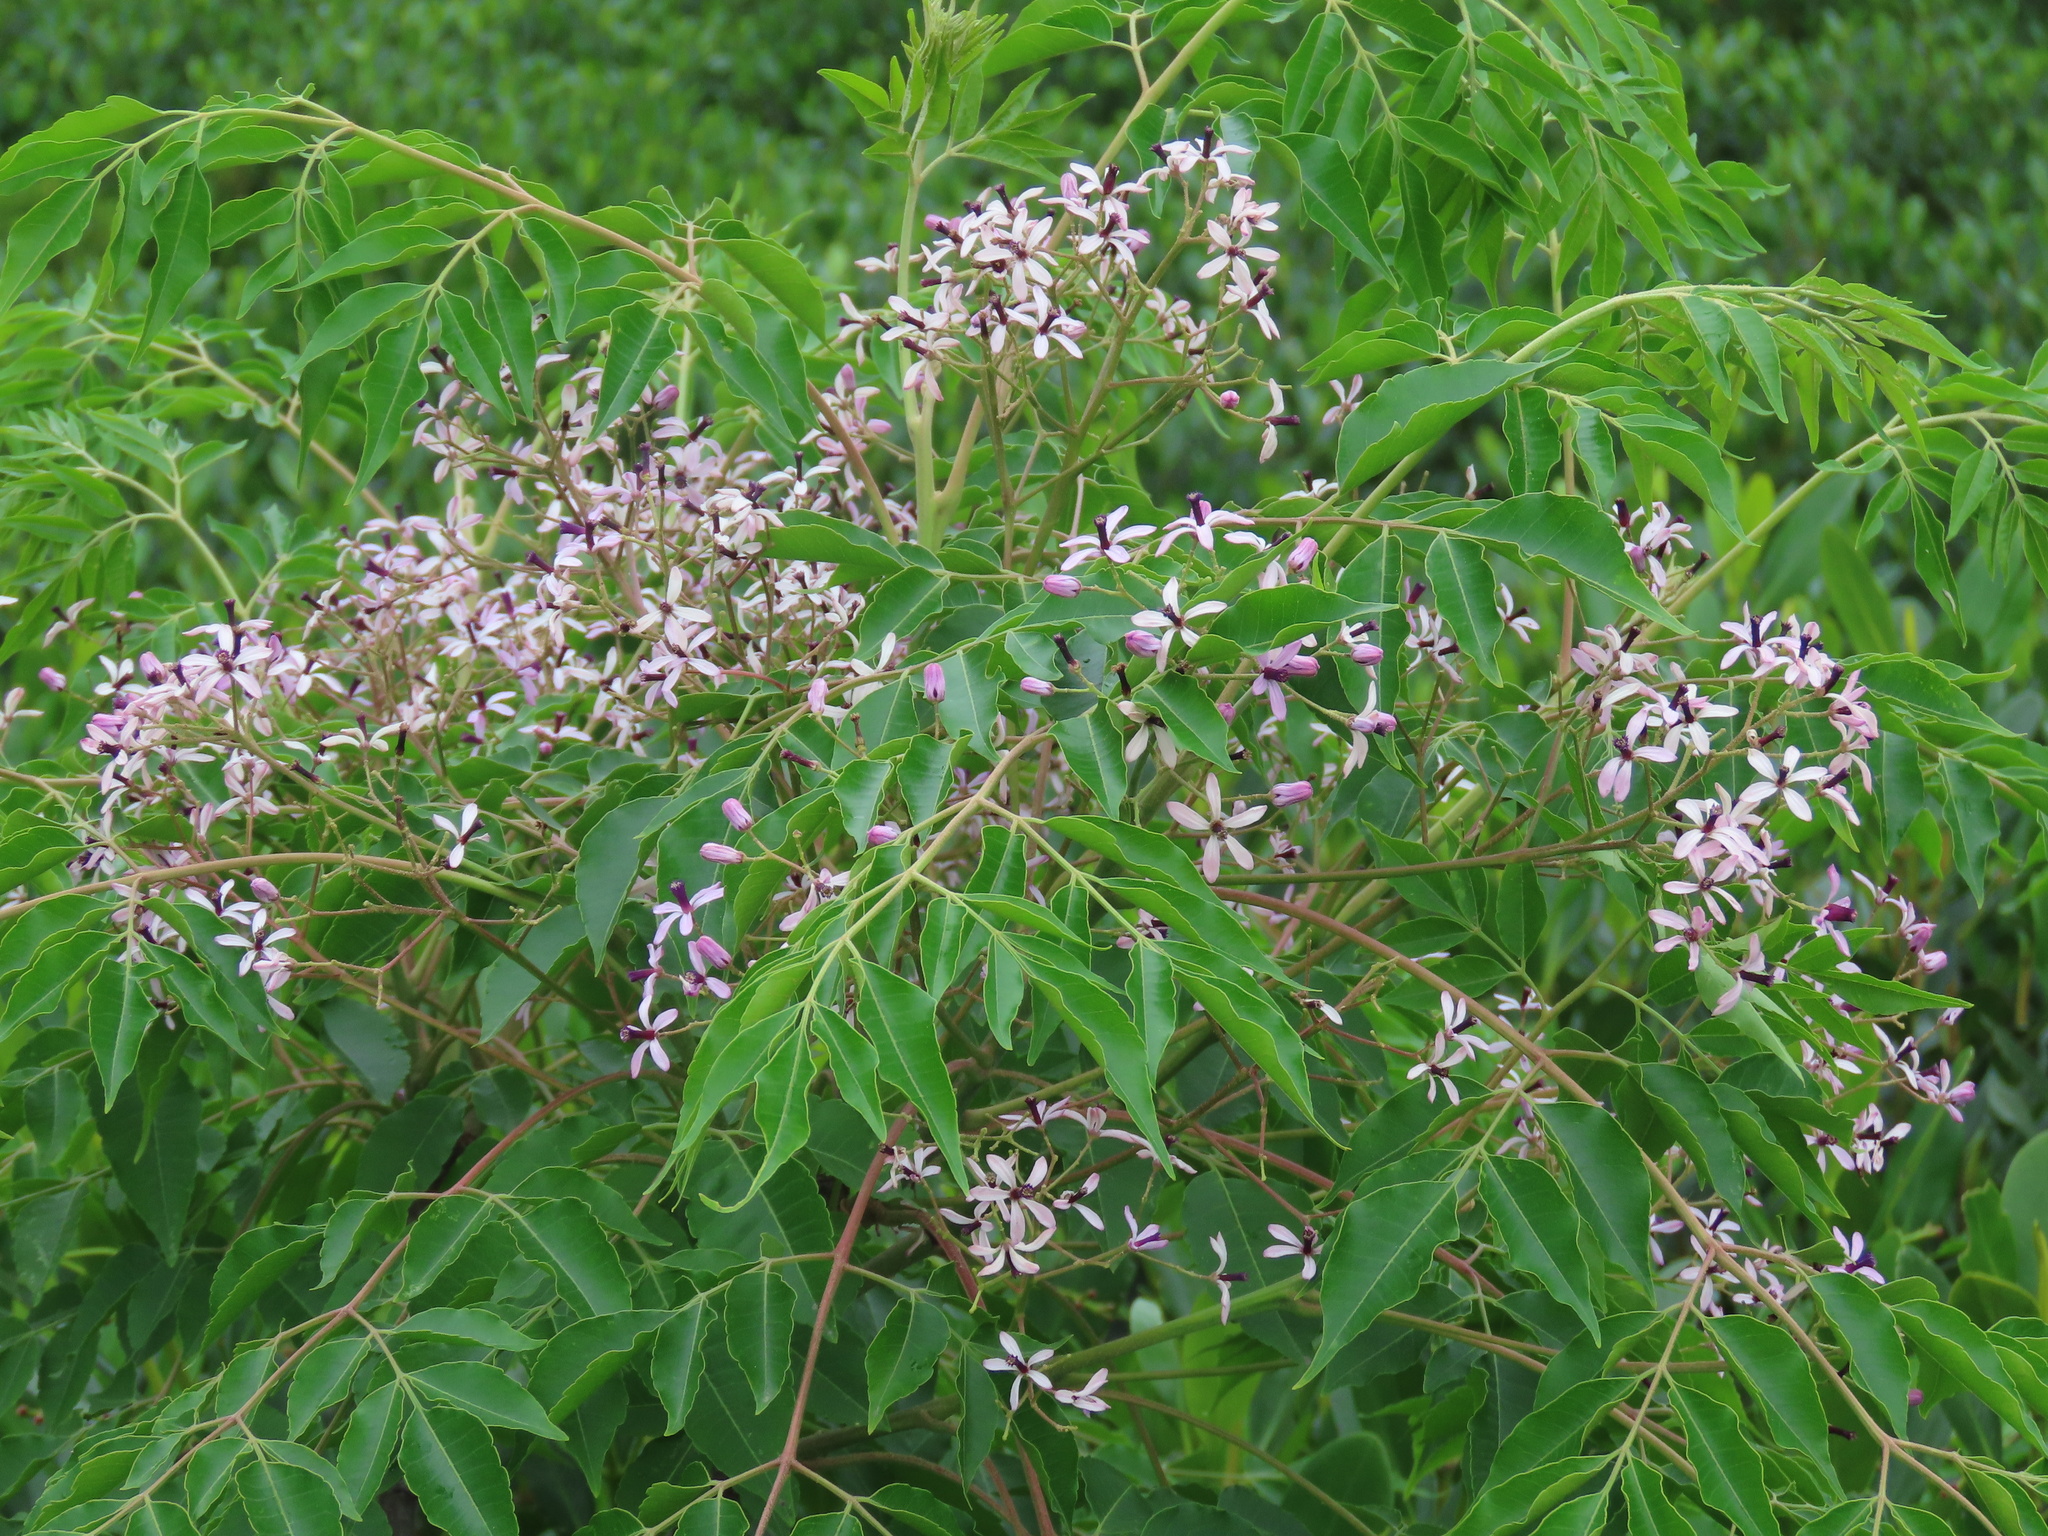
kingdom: Plantae
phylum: Tracheophyta
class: Magnoliopsida
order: Sapindales
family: Meliaceae
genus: Melia
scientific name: Melia azedarach
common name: Chinaberrytree
